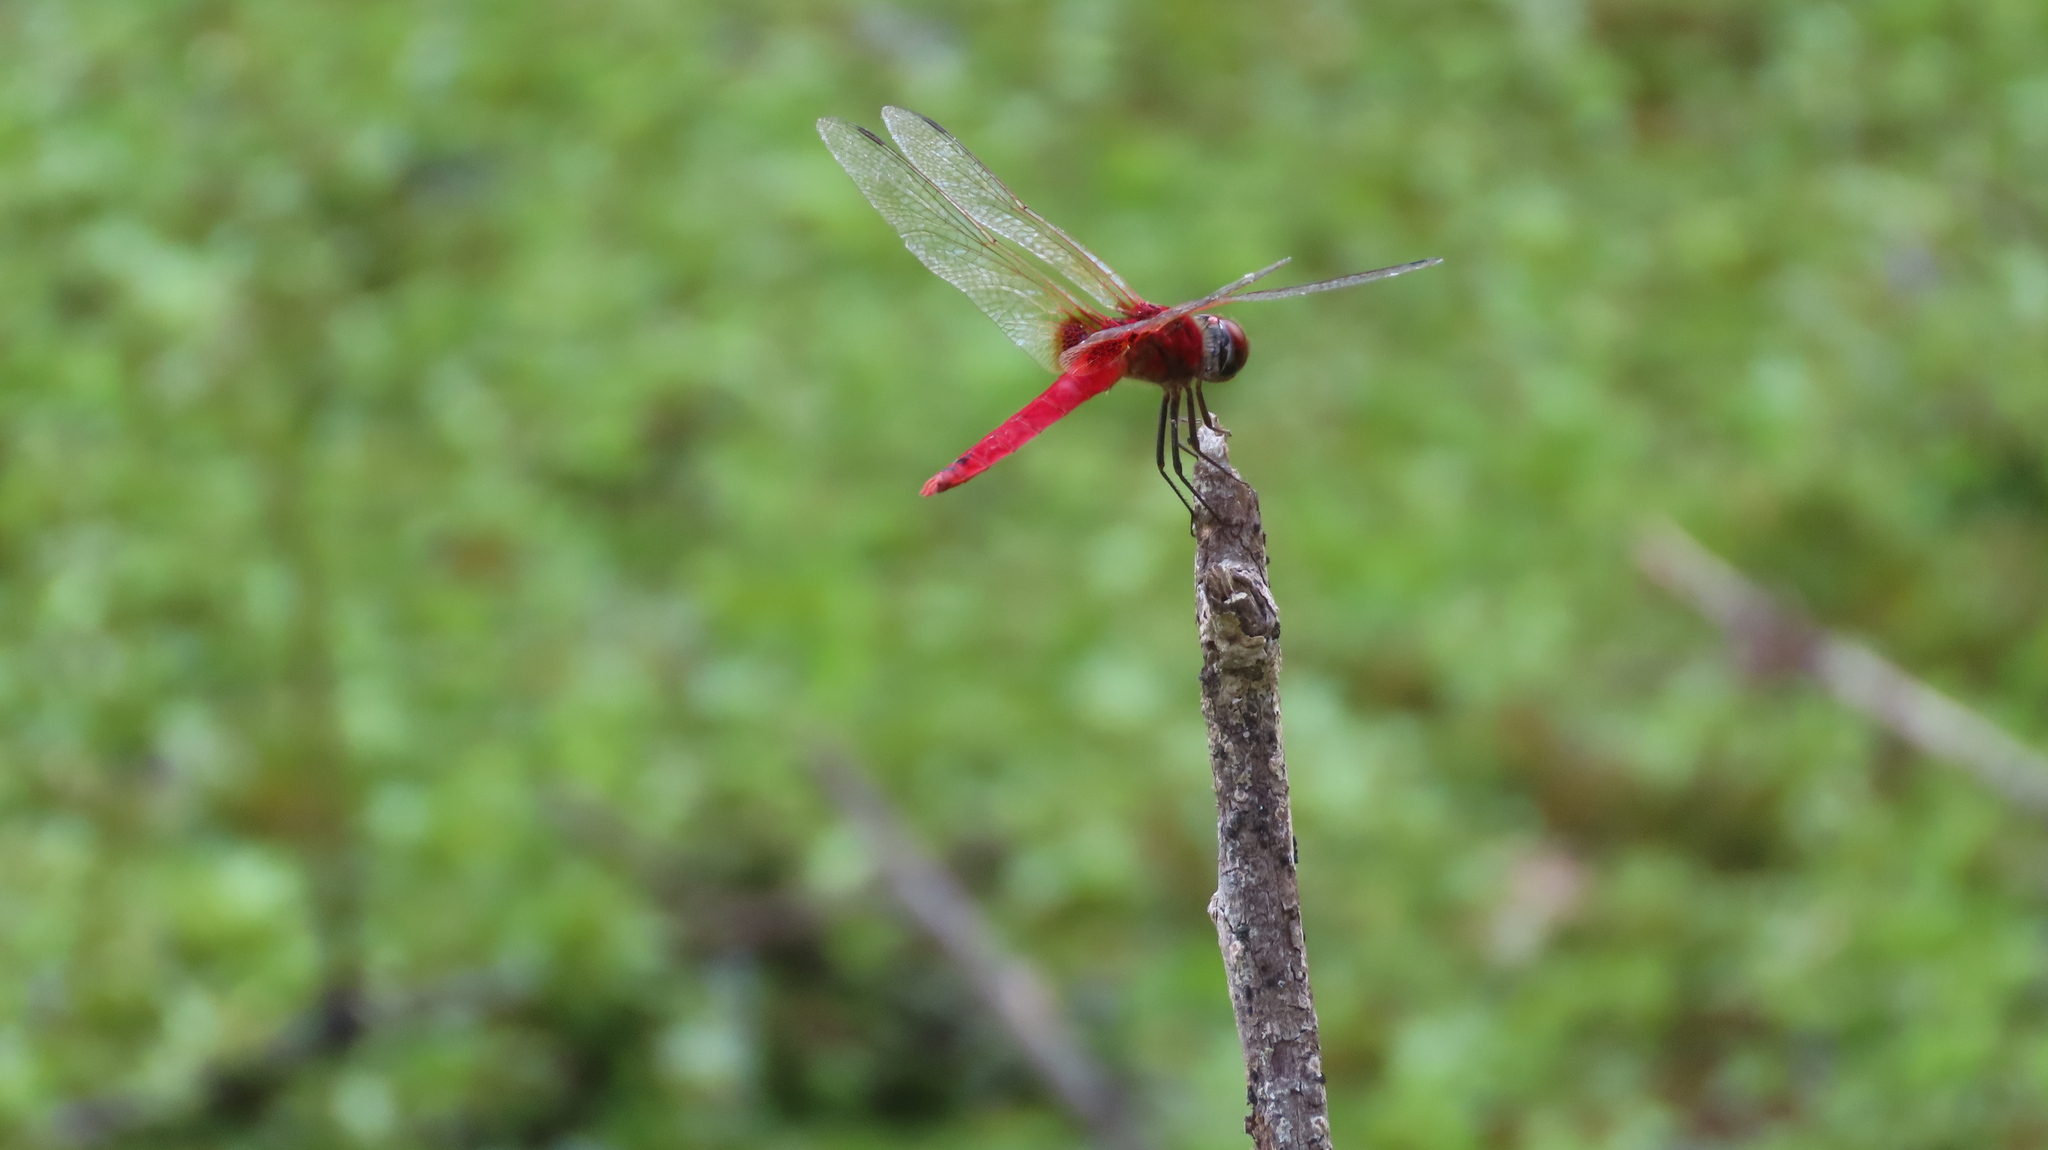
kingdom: Animalia
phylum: Arthropoda
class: Insecta
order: Odonata
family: Libellulidae
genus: Urothemis
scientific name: Urothemis signata
